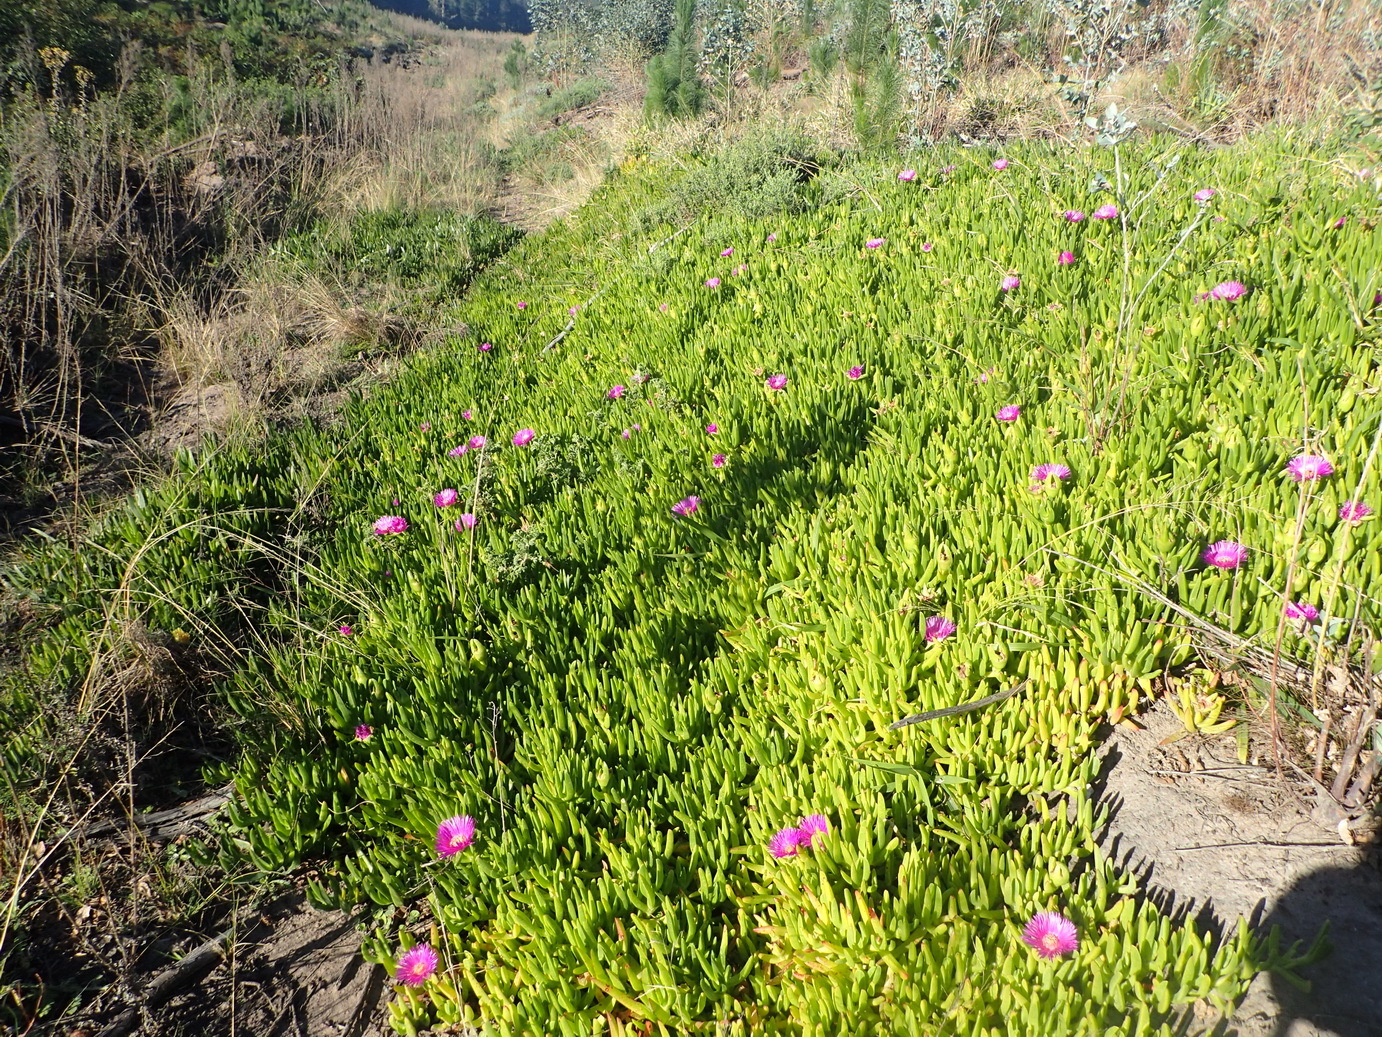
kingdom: Plantae
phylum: Tracheophyta
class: Magnoliopsida
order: Caryophyllales
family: Aizoaceae
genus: Carpobrotus
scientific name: Carpobrotus deliciosus
